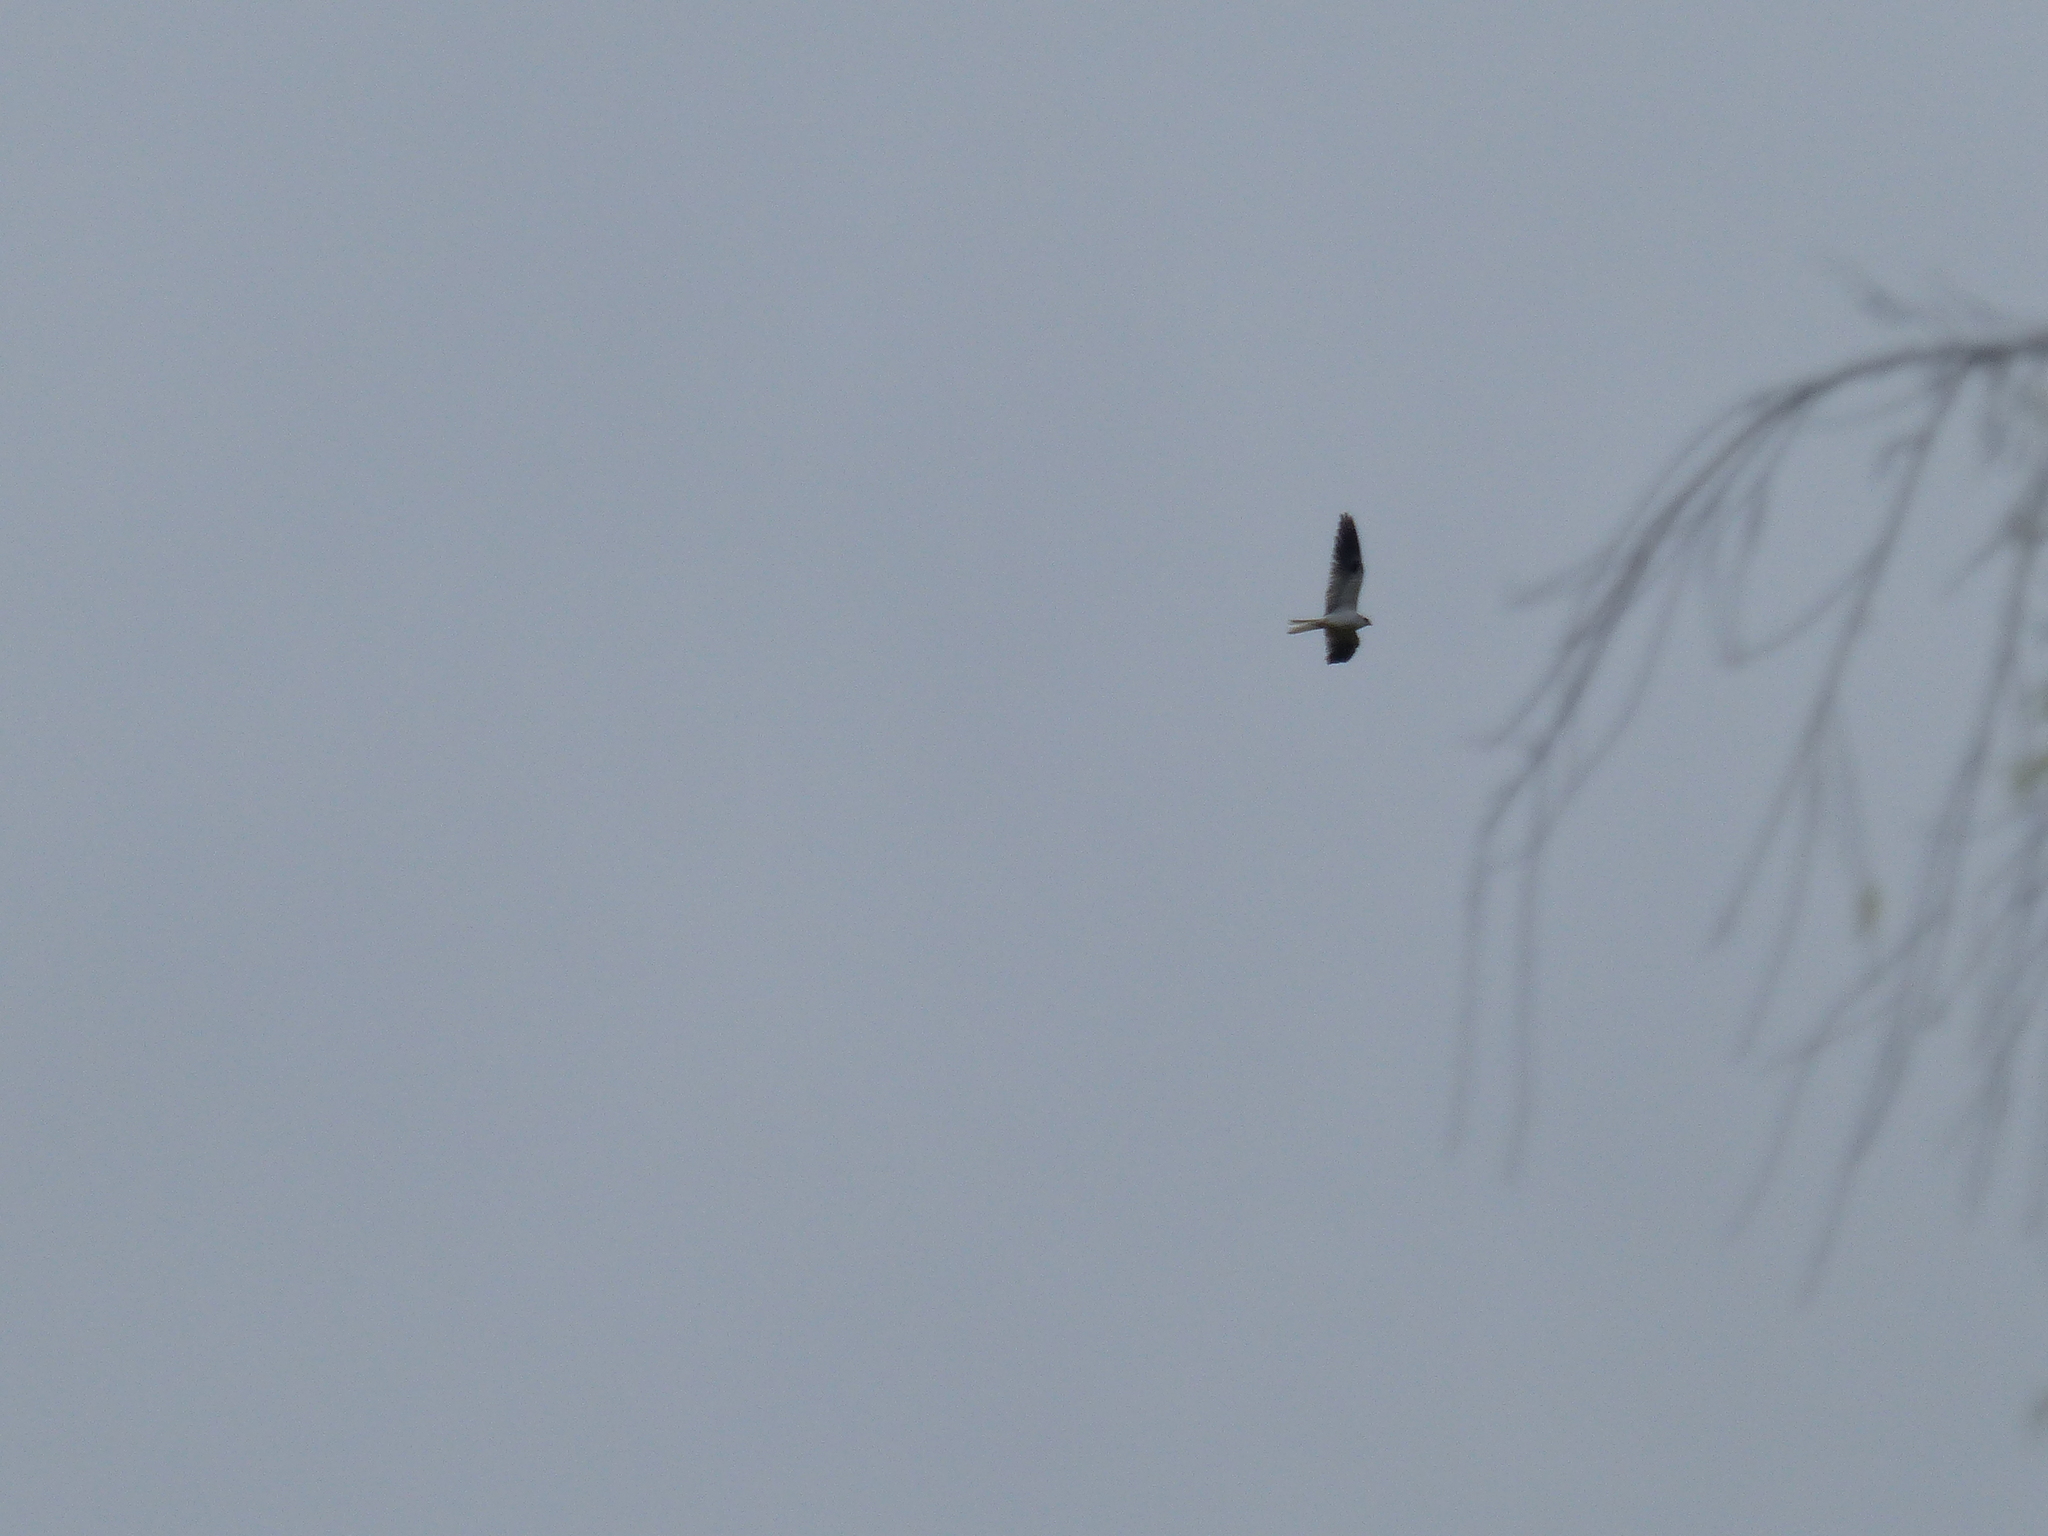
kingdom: Animalia
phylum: Chordata
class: Aves
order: Accipitriformes
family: Accipitridae
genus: Elanus
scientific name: Elanus leucurus
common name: White-tailed kite
